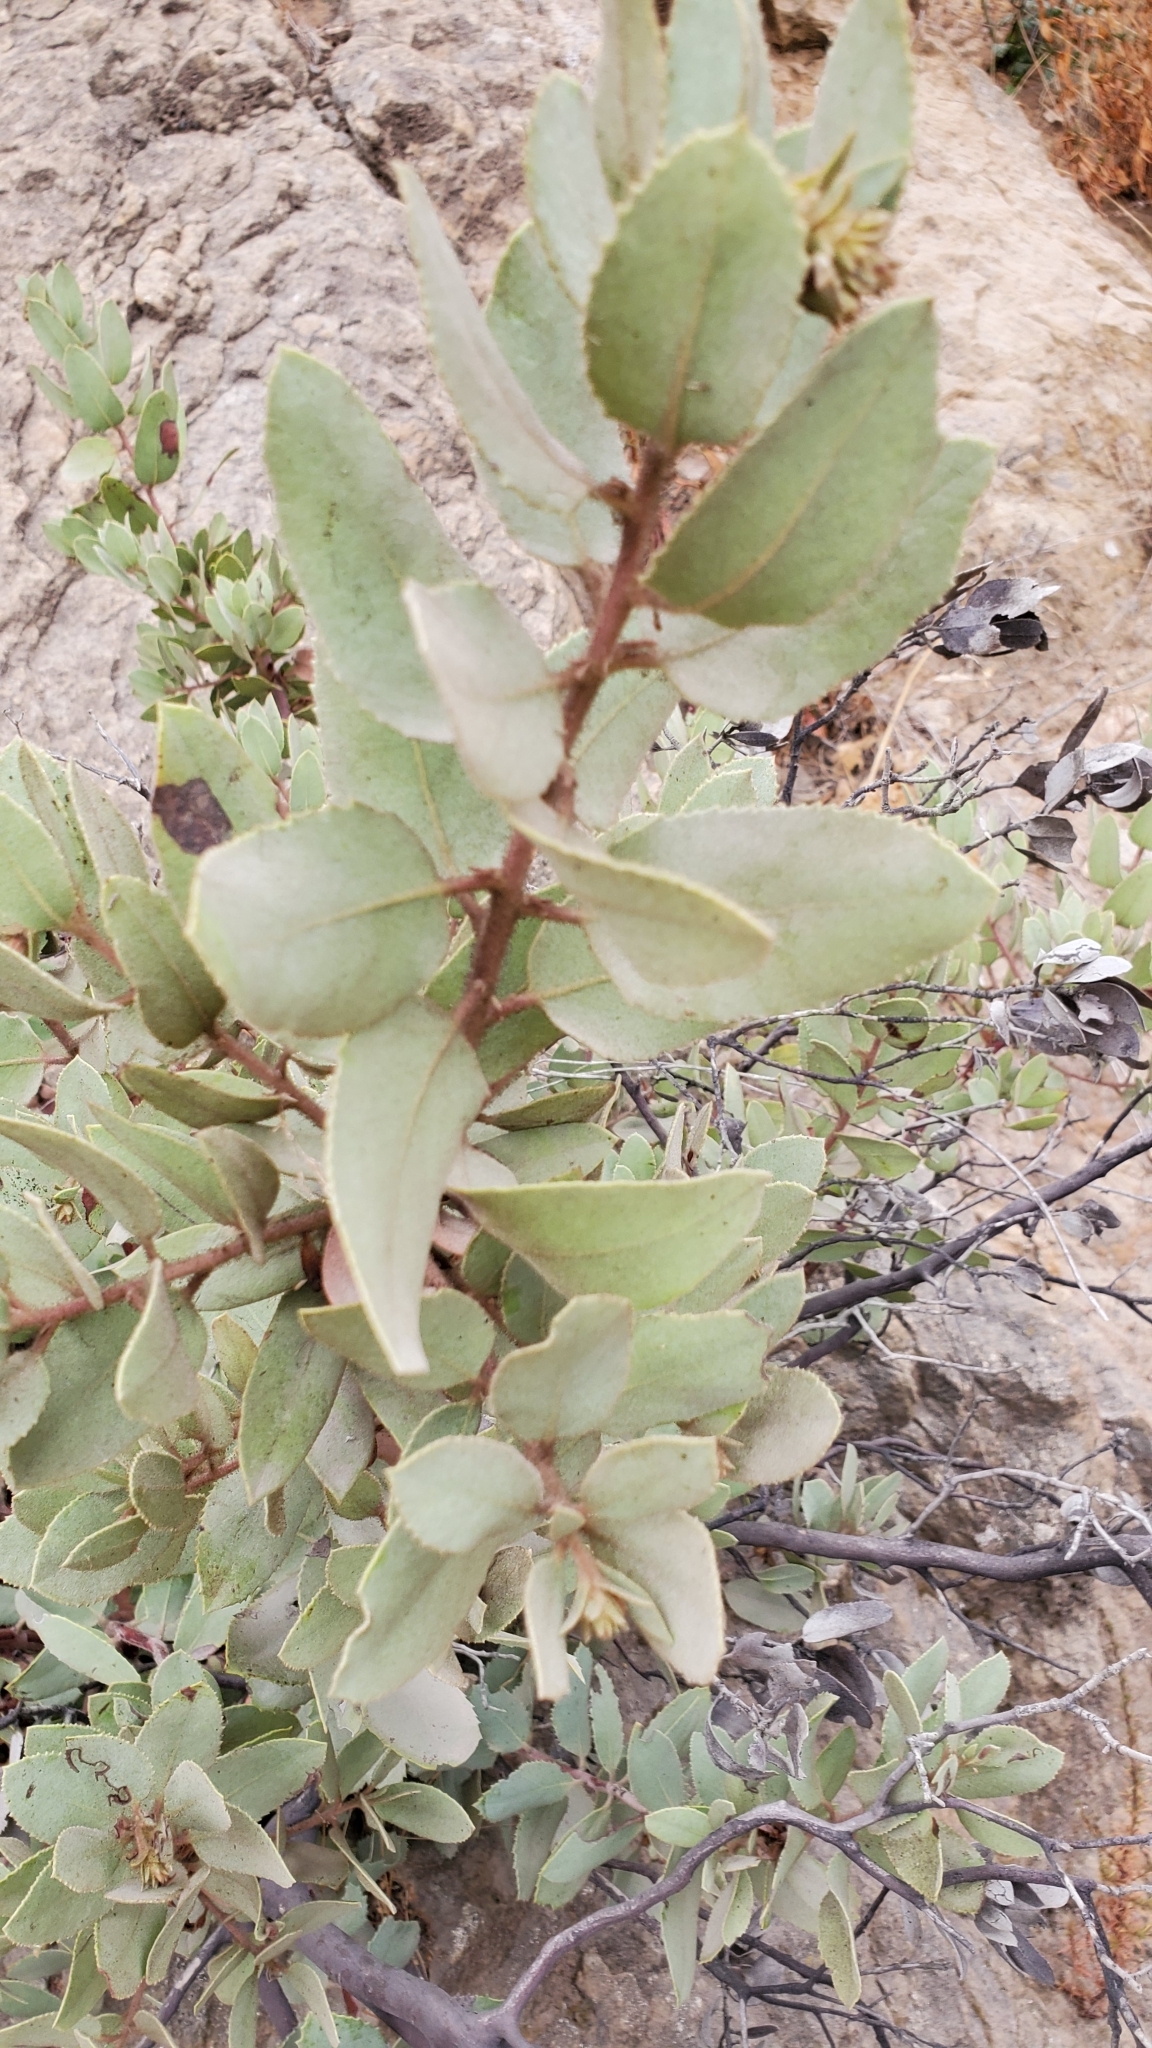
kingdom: Plantae
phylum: Tracheophyta
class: Magnoliopsida
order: Ericales
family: Ericaceae
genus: Arctostaphylos
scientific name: Arctostaphylos glandulosa
